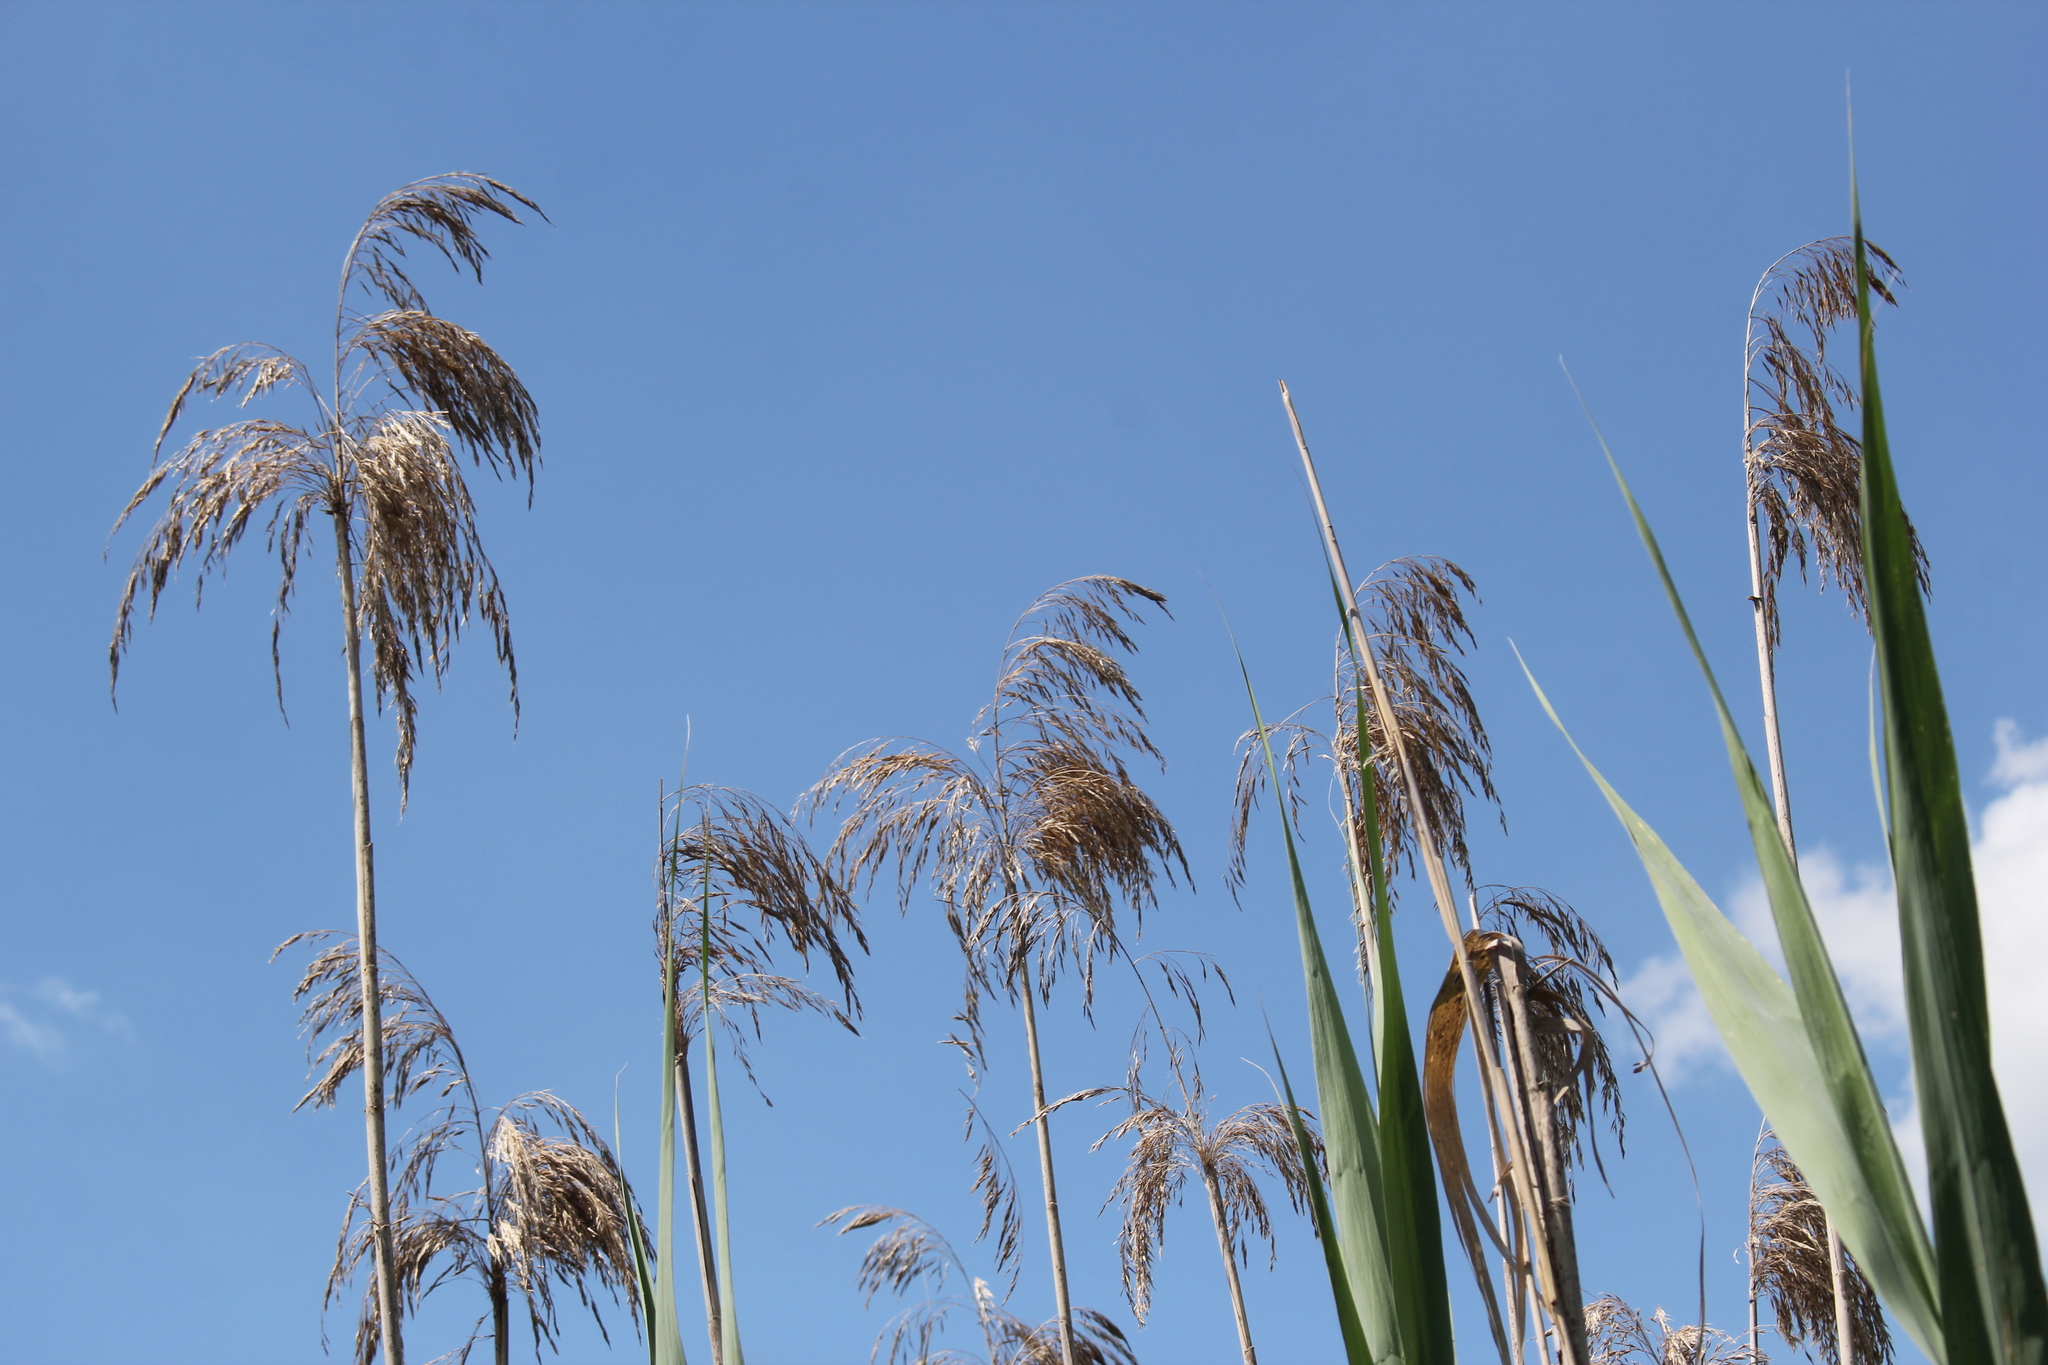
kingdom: Plantae
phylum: Tracheophyta
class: Liliopsida
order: Poales
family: Poaceae
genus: Phragmites
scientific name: Phragmites australis
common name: Common reed
